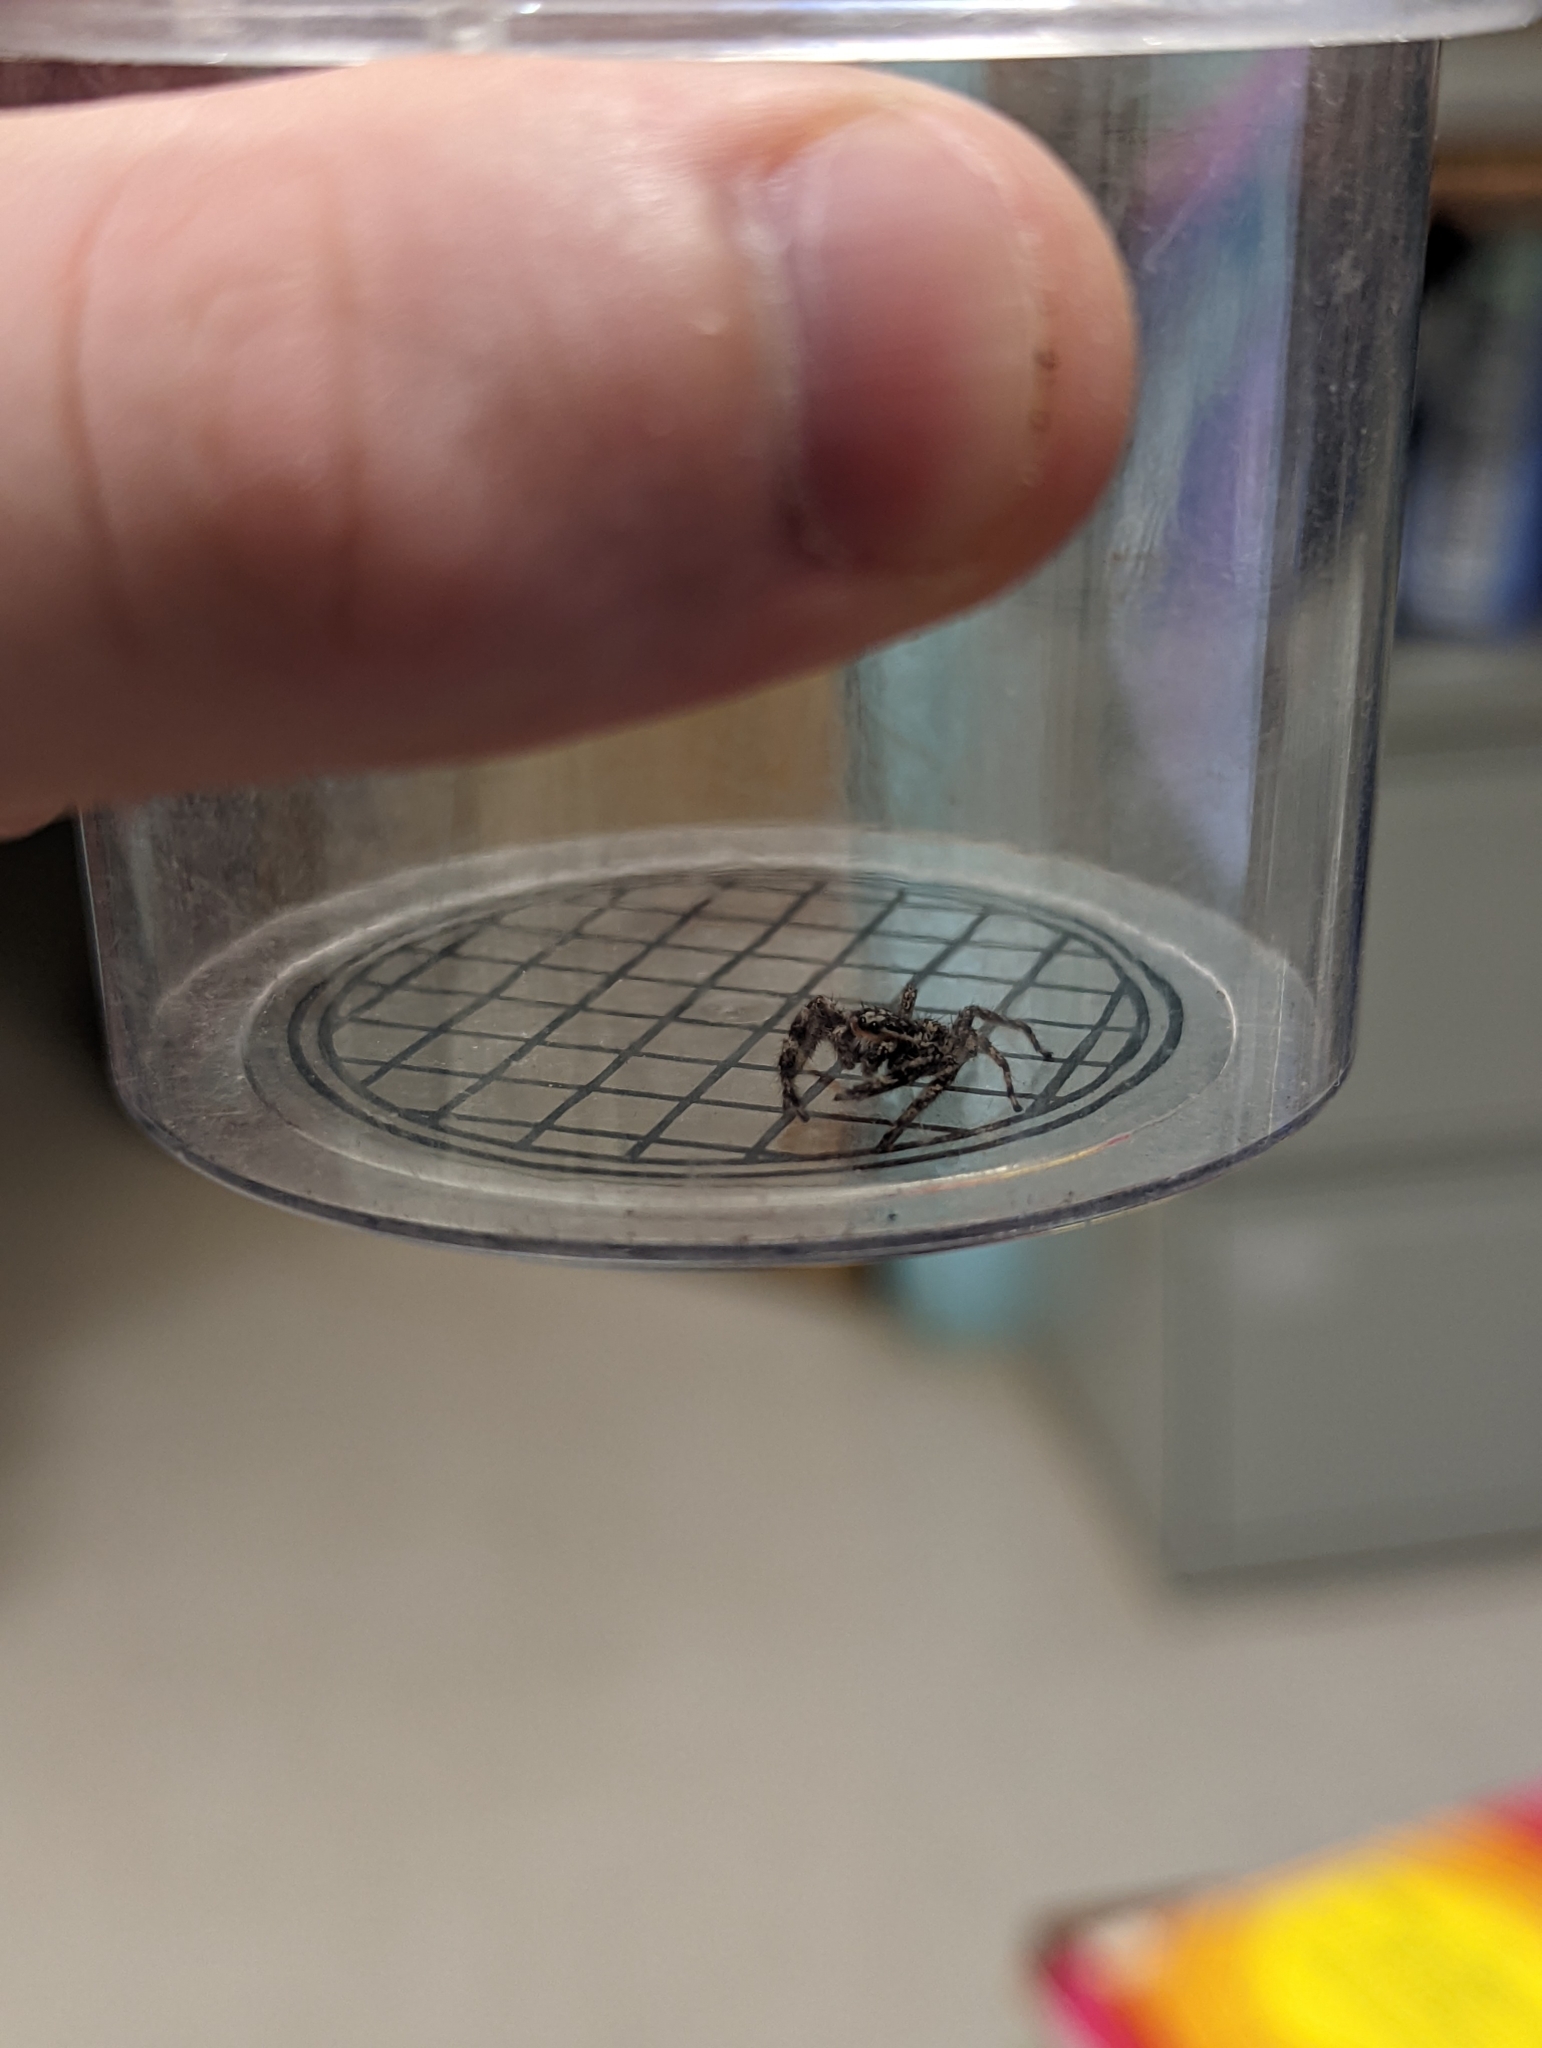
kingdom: Animalia
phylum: Arthropoda
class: Arachnida
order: Araneae
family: Salticidae
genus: Platycryptus
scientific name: Platycryptus undatus
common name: Tan jumping spider
